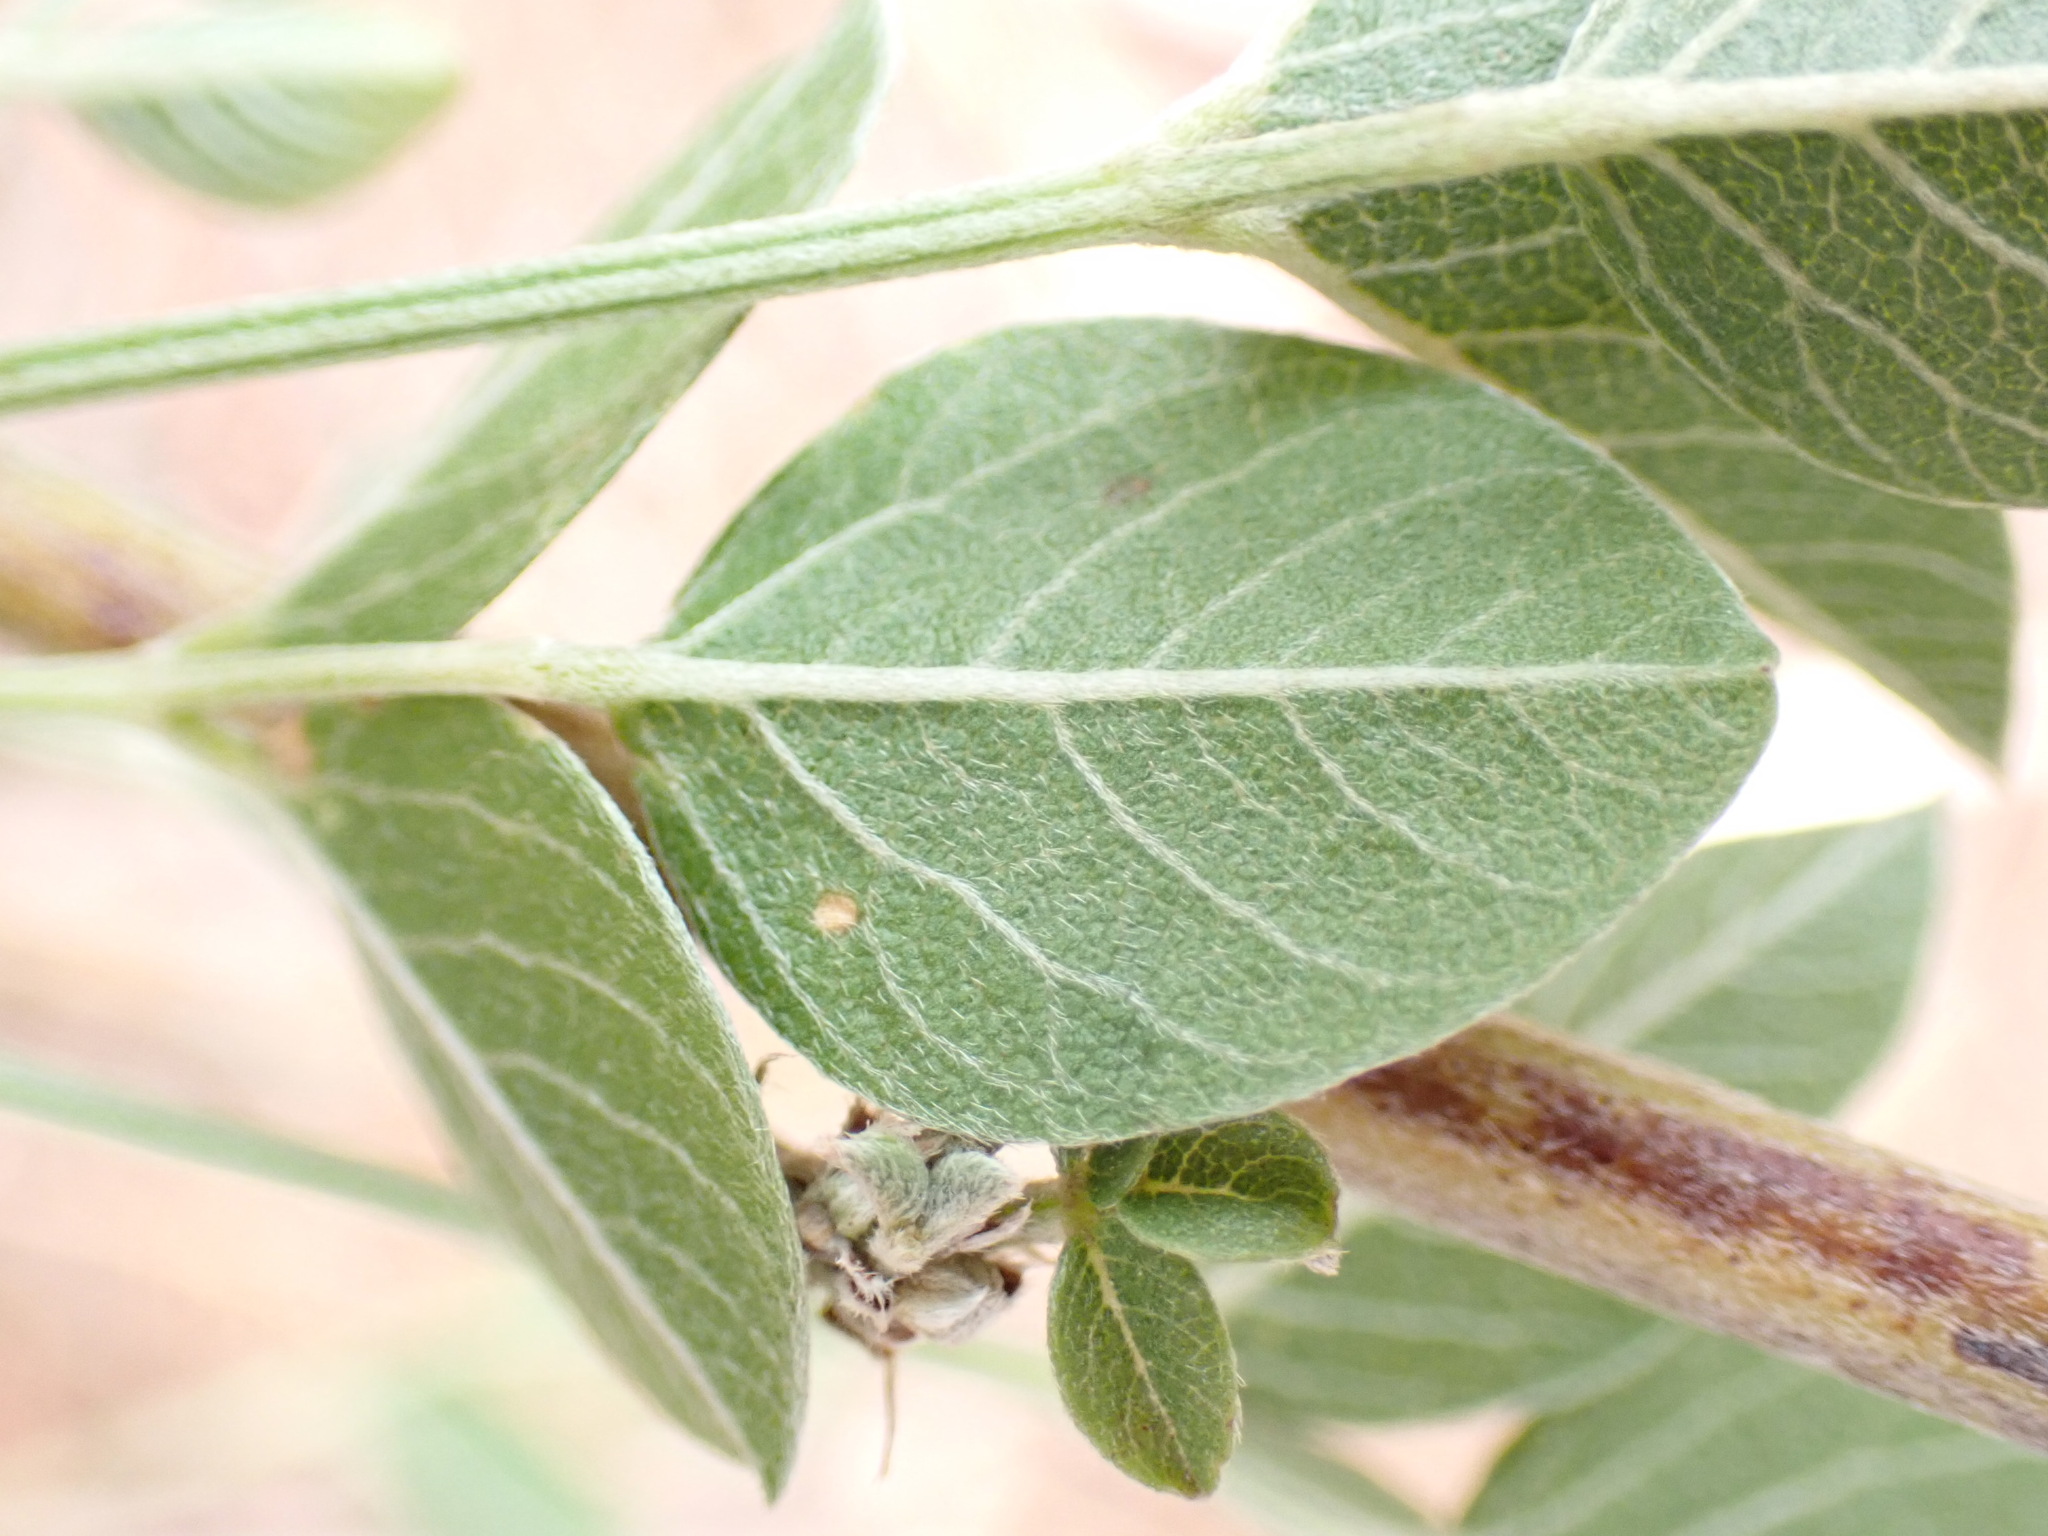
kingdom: Plantae
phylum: Tracheophyta
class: Magnoliopsida
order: Fabales
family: Fabaceae
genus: Bituminaria
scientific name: Bituminaria bituminosa
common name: Arabian pea
